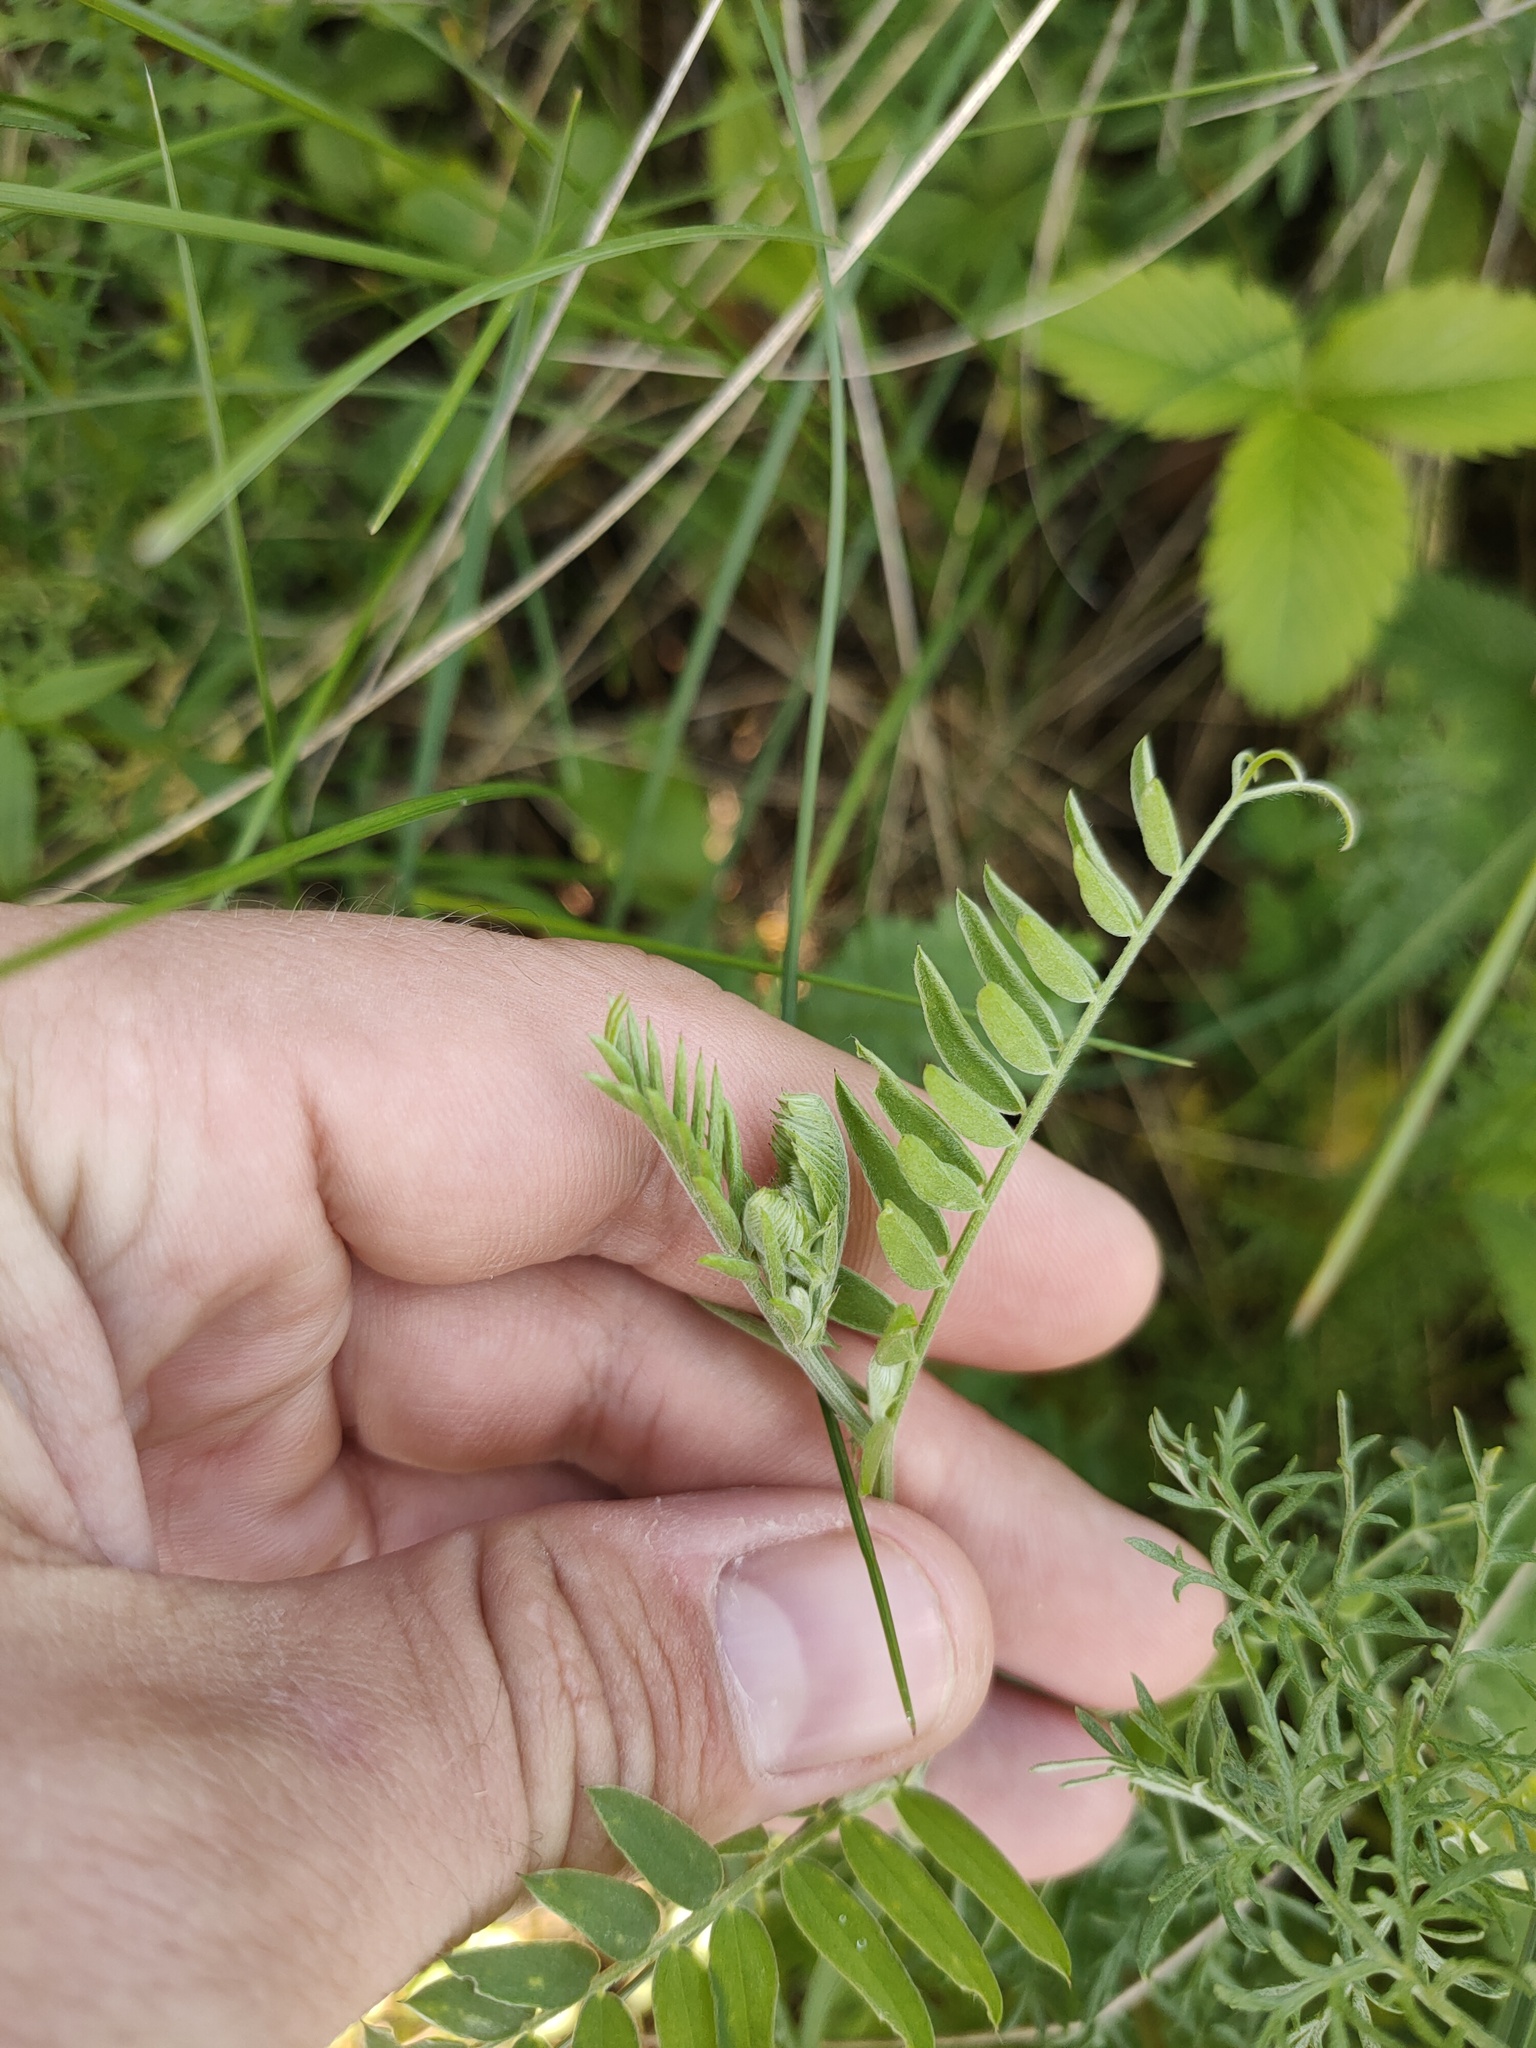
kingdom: Plantae
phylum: Tracheophyta
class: Magnoliopsida
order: Fabales
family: Fabaceae
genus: Vicia
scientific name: Vicia cracca
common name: Bird vetch
